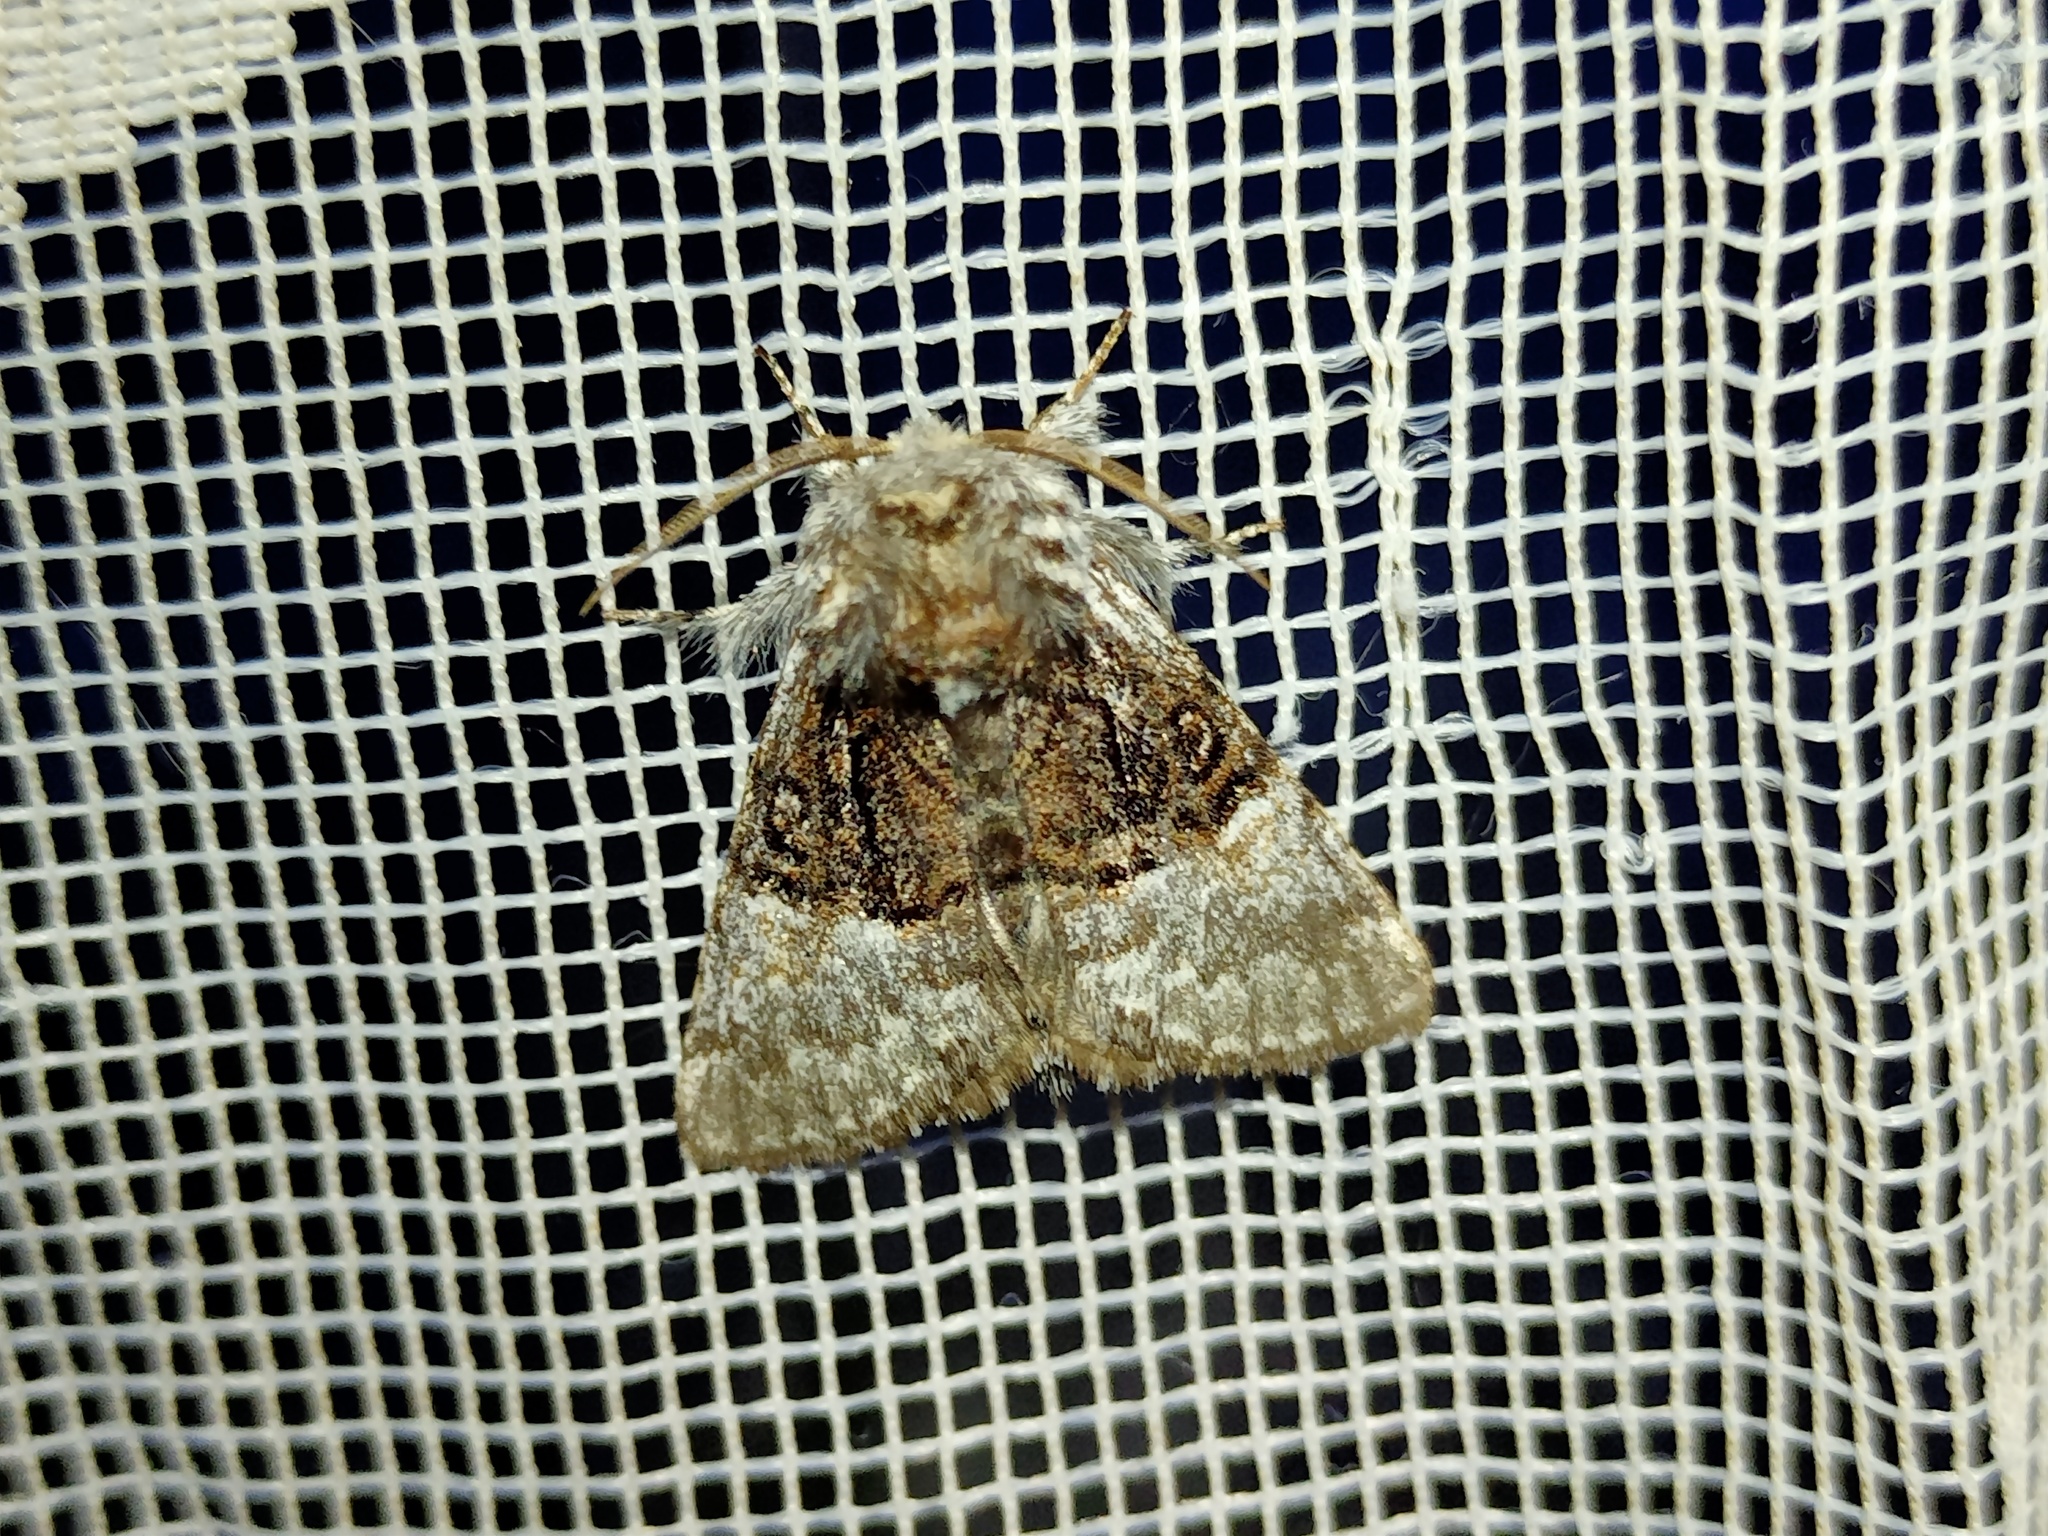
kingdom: Animalia
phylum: Arthropoda
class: Insecta
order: Lepidoptera
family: Noctuidae
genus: Colocasia
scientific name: Colocasia coryli
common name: Nut-tree tussock
